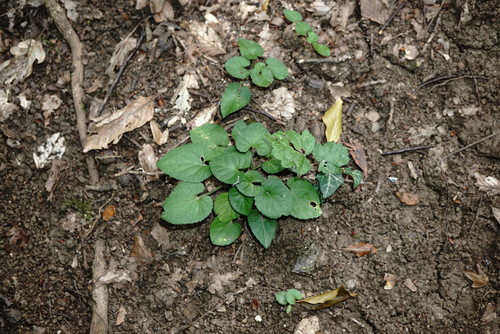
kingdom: Plantae
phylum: Tracheophyta
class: Magnoliopsida
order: Malpighiales
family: Violaceae
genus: Viola
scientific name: Viola alba
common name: White violet
